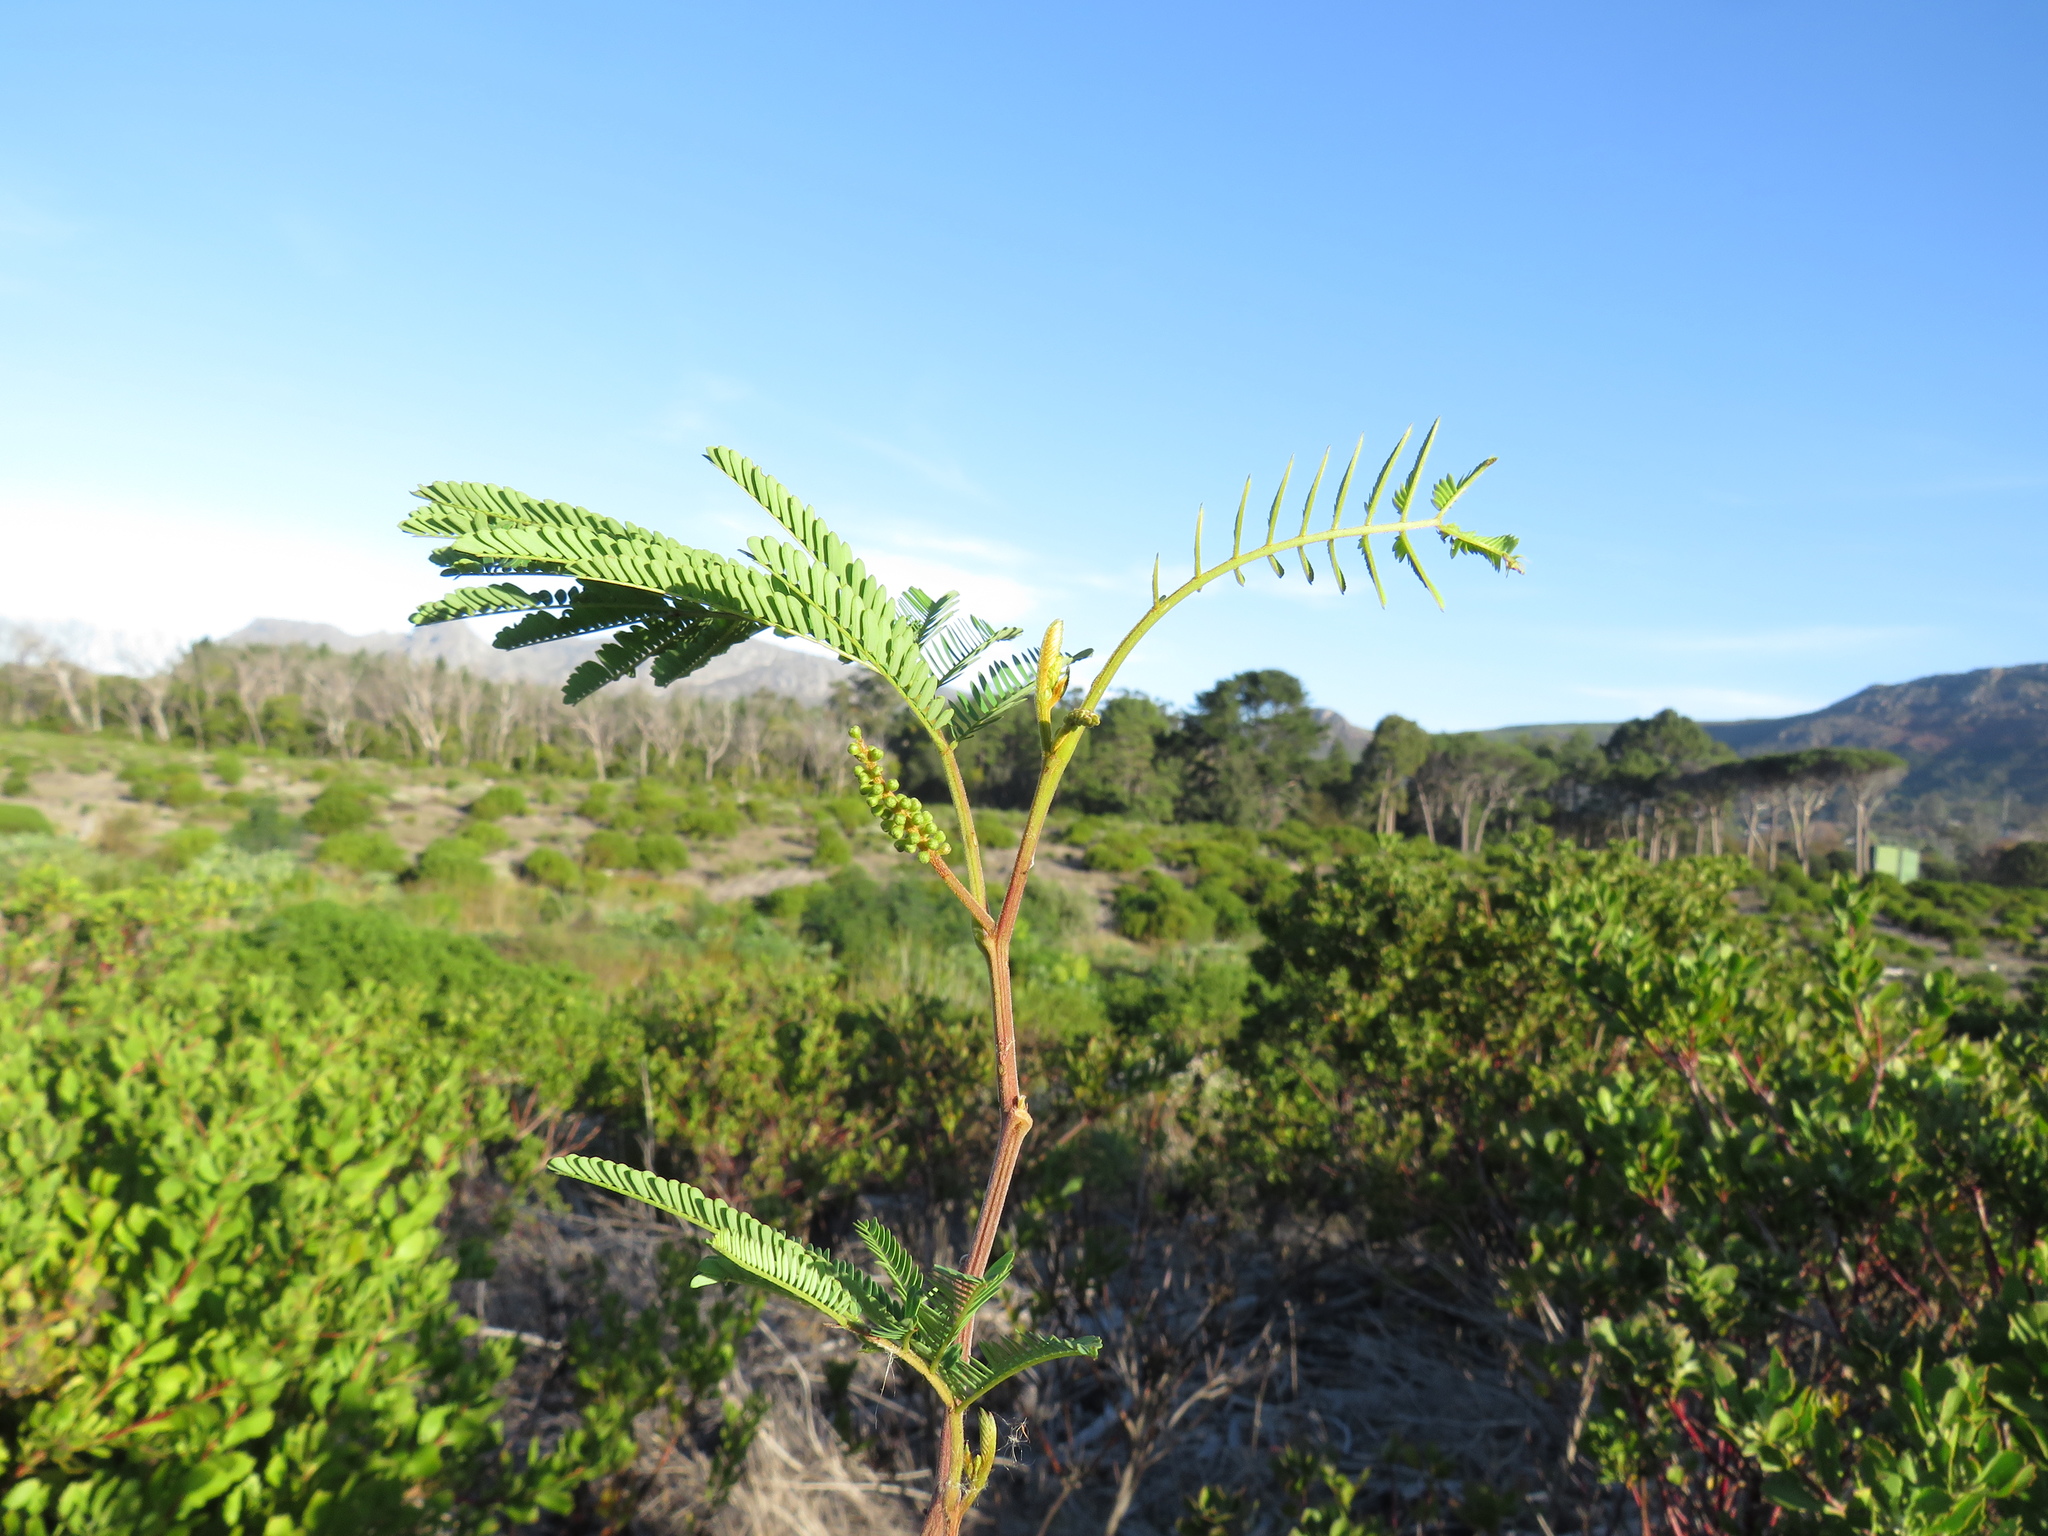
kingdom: Plantae
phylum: Tracheophyta
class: Magnoliopsida
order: Fabales
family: Fabaceae
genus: Paraserianthes
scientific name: Paraserianthes lophantha
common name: Plume albizia
